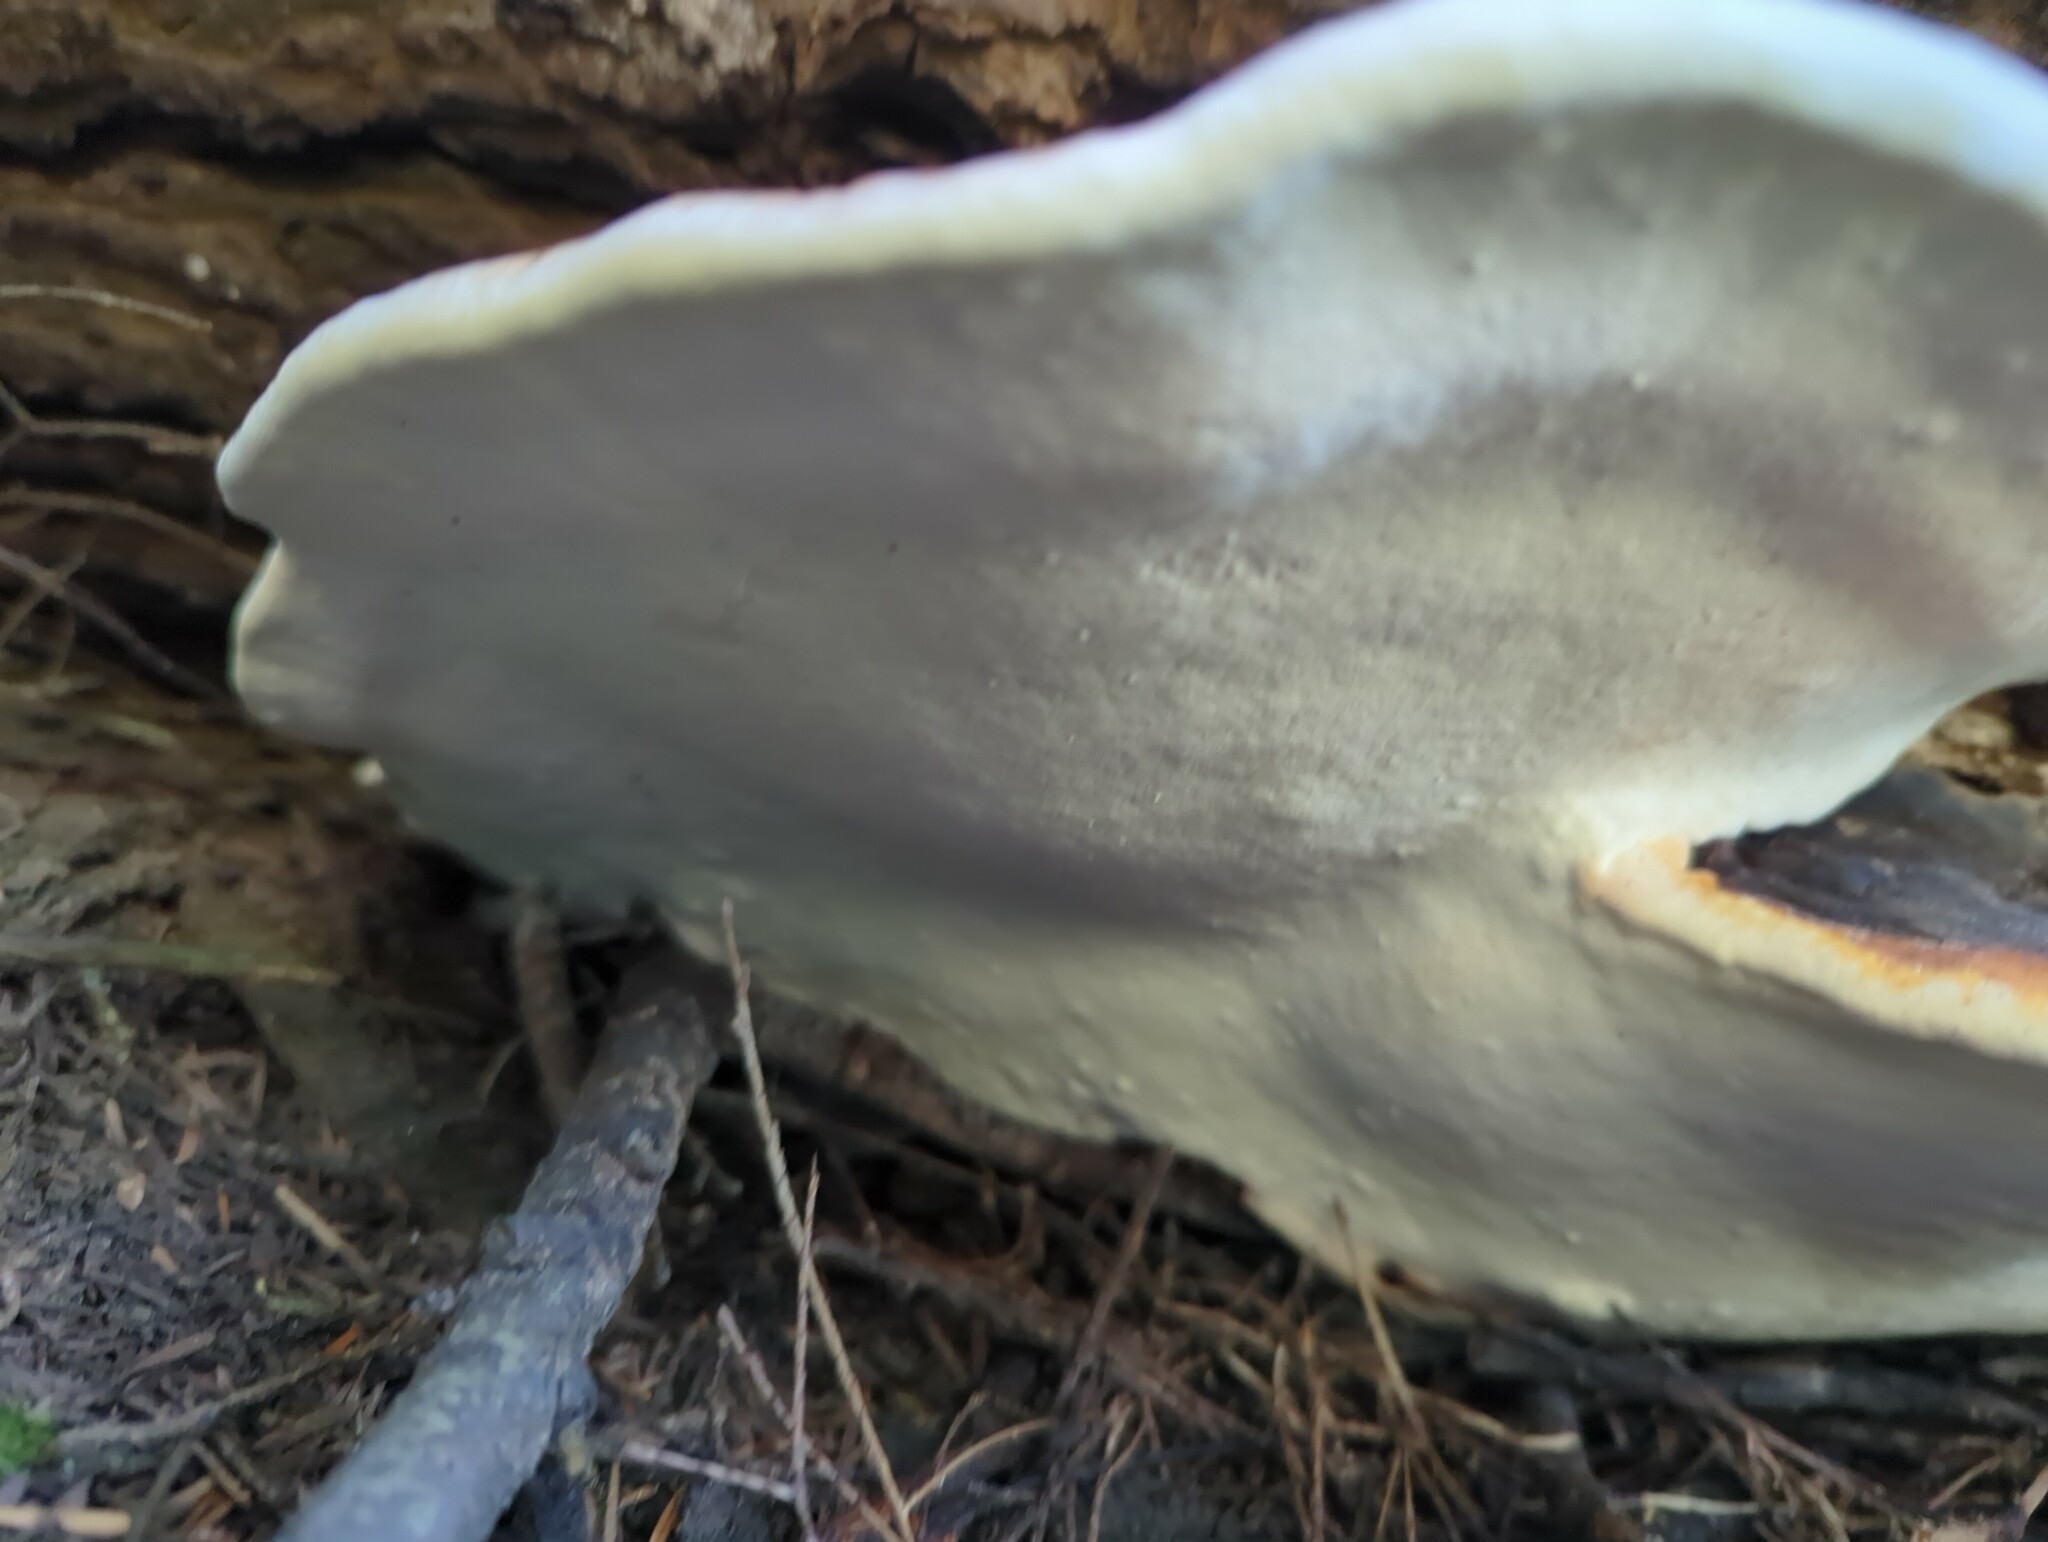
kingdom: Fungi
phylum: Basidiomycota
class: Agaricomycetes
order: Polyporales
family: Fomitopsidaceae
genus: Fomitopsis
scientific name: Fomitopsis mounceae
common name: Northern red belt
